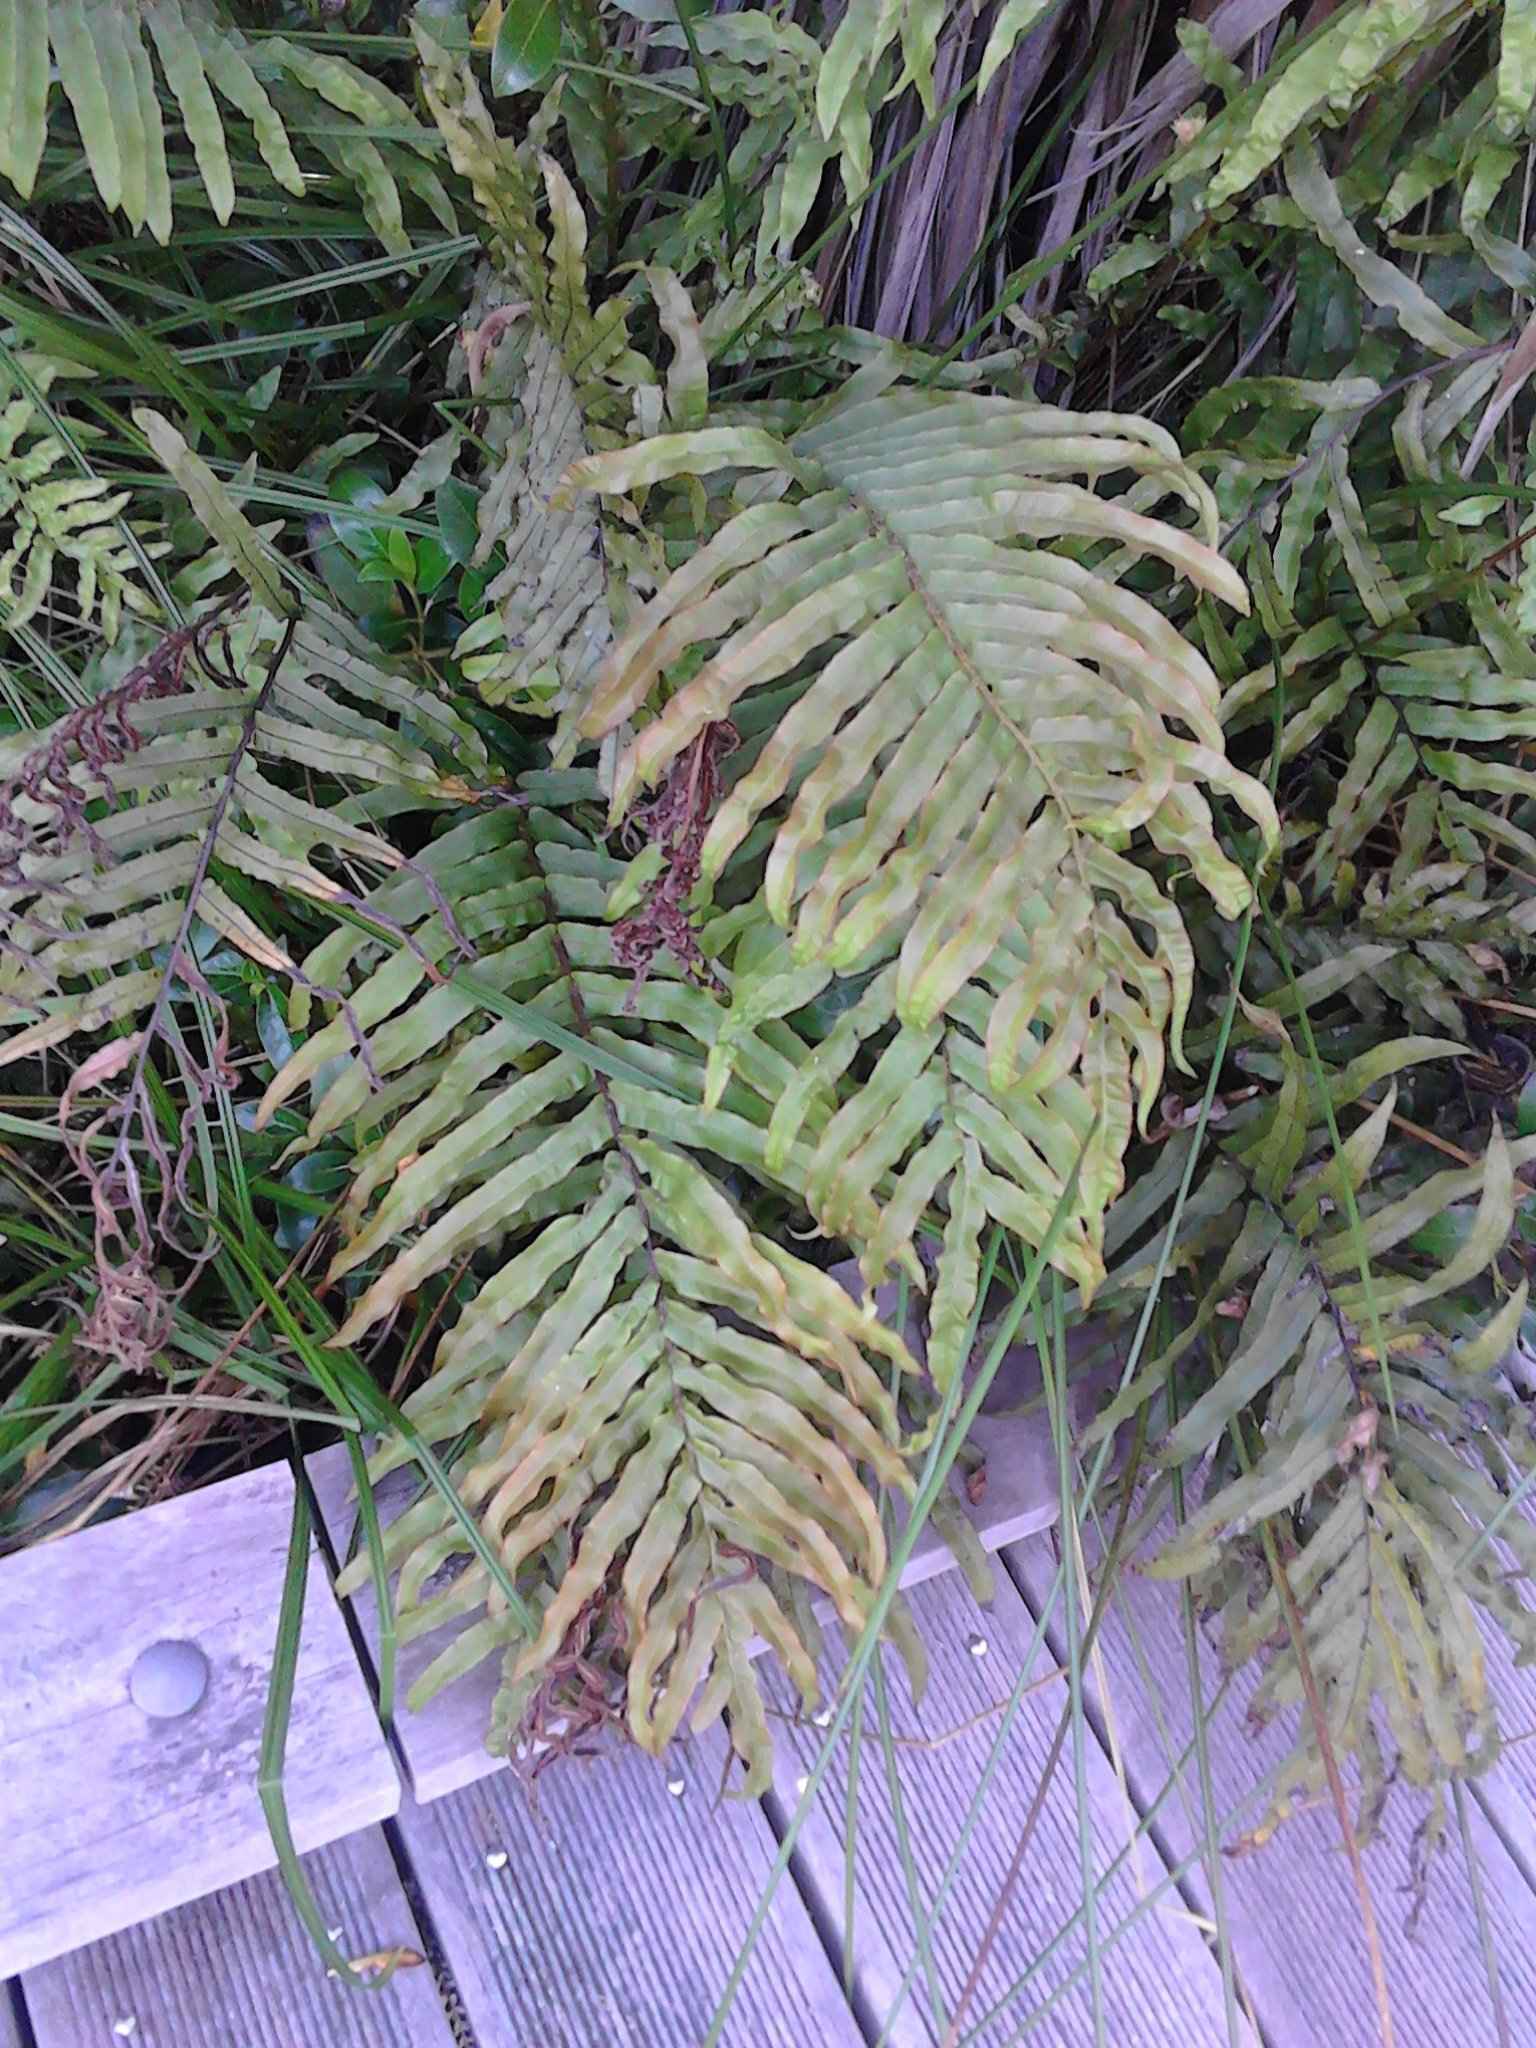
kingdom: Plantae
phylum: Tracheophyta
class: Polypodiopsida
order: Polypodiales
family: Blechnaceae
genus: Parablechnum
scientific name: Parablechnum minus
